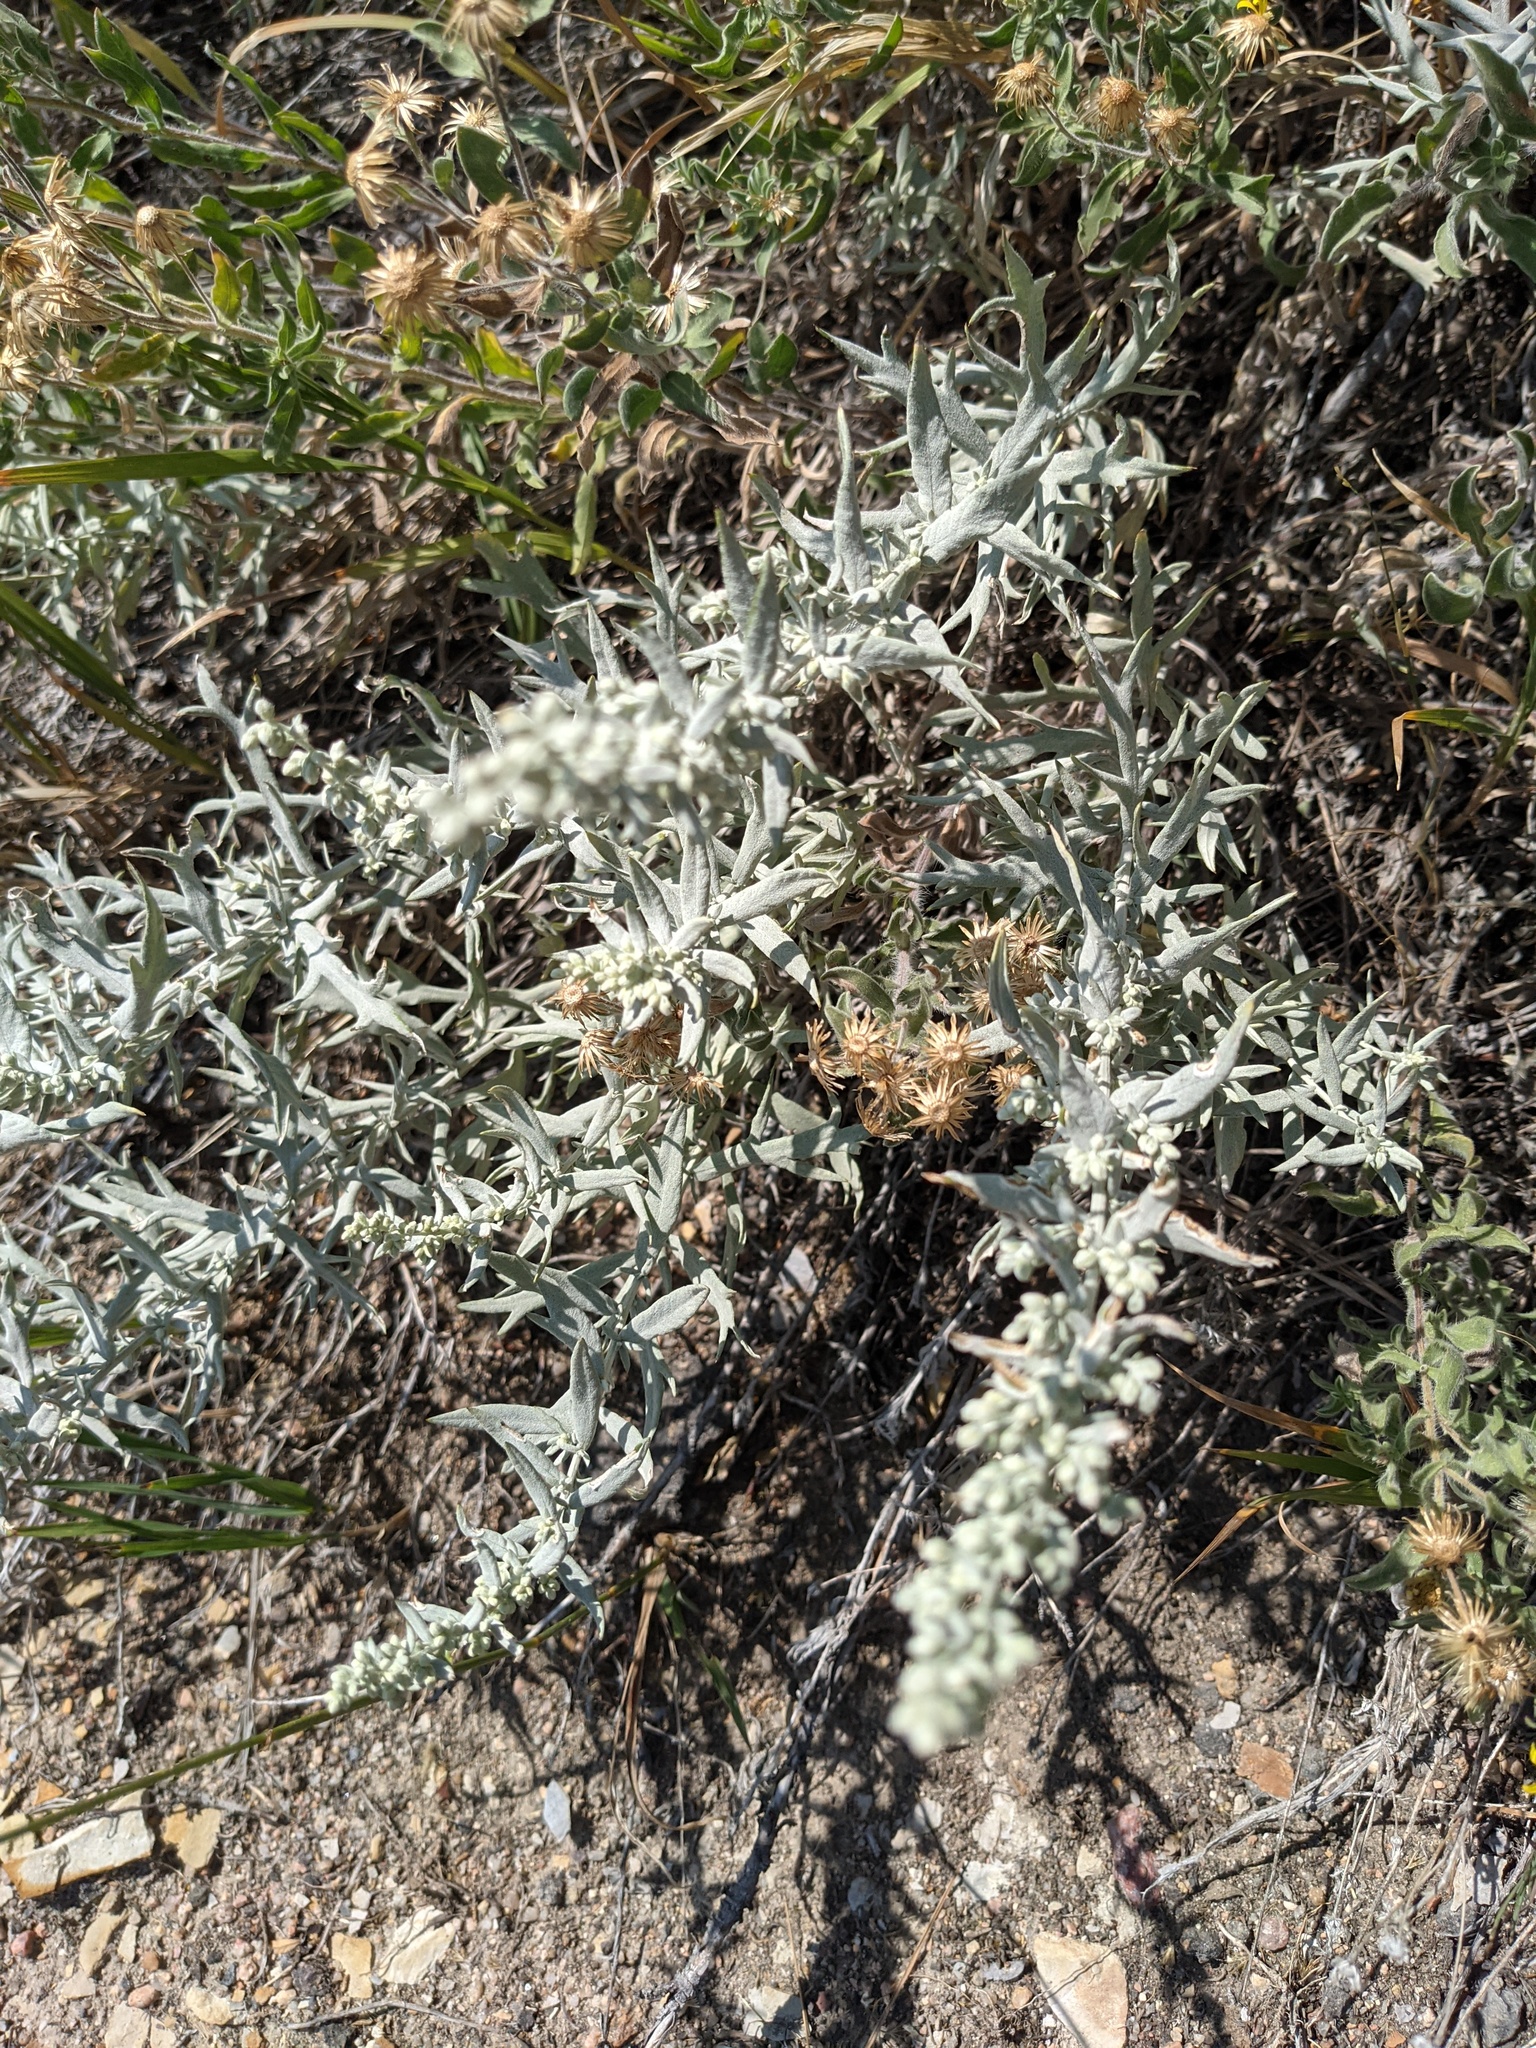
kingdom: Plantae
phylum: Tracheophyta
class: Magnoliopsida
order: Asterales
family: Asteraceae
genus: Artemisia
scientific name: Artemisia ludoviciana
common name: Western mugwort
